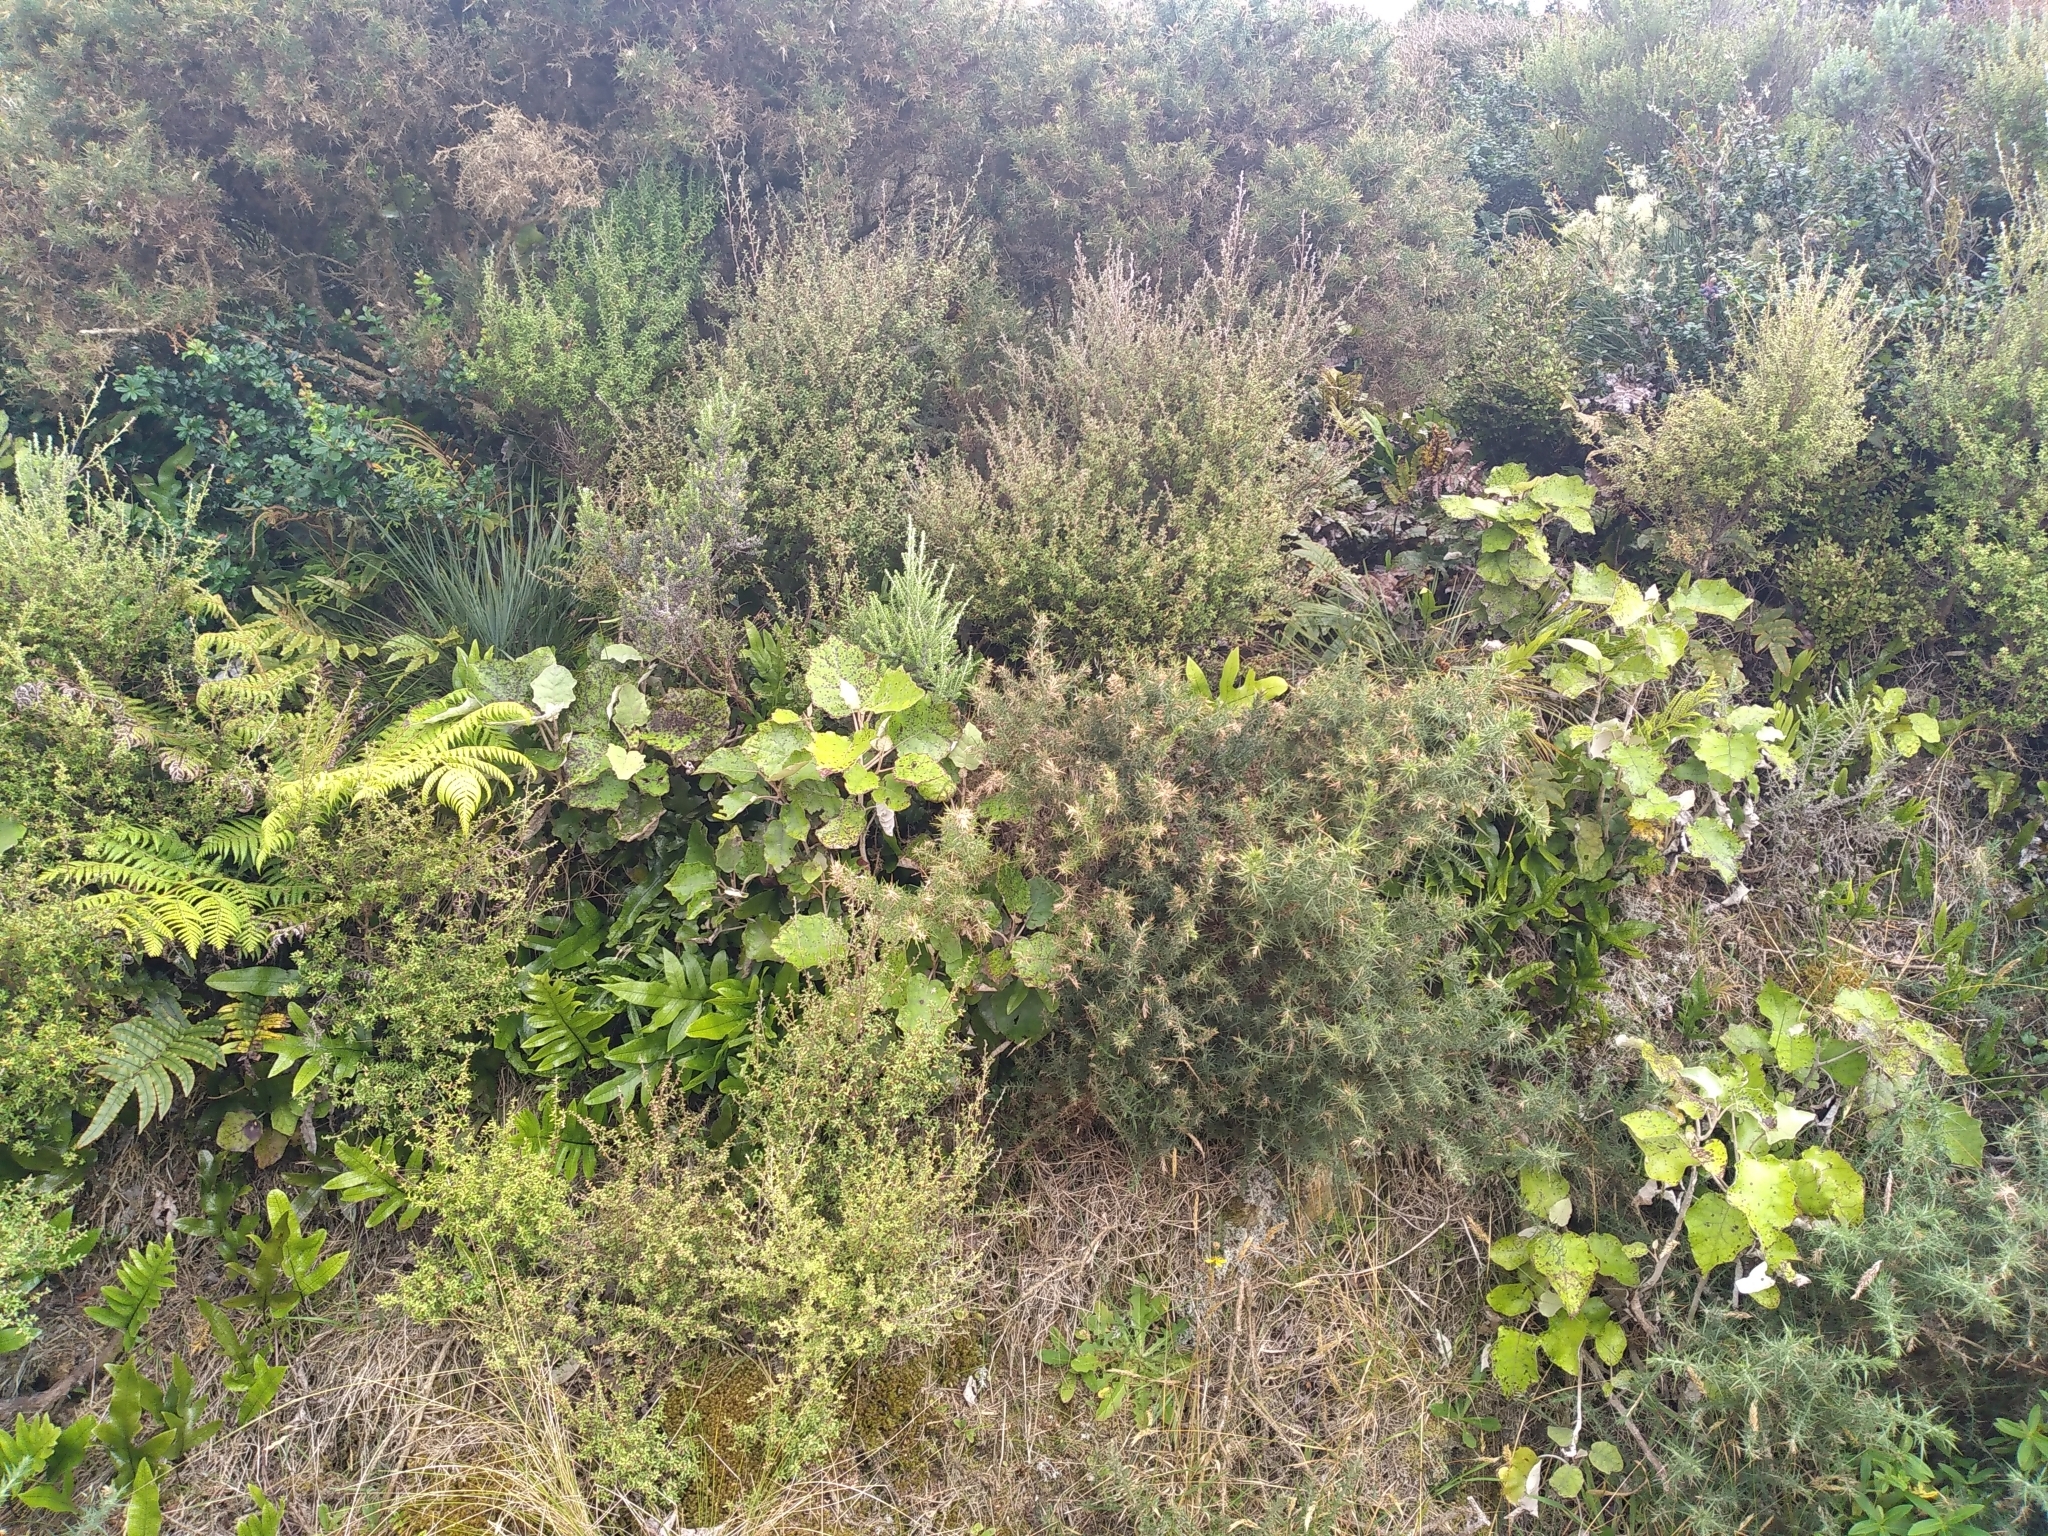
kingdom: Plantae
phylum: Tracheophyta
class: Magnoliopsida
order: Apiales
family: Apiaceae
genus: Aciphylla
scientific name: Aciphylla squarrosa
